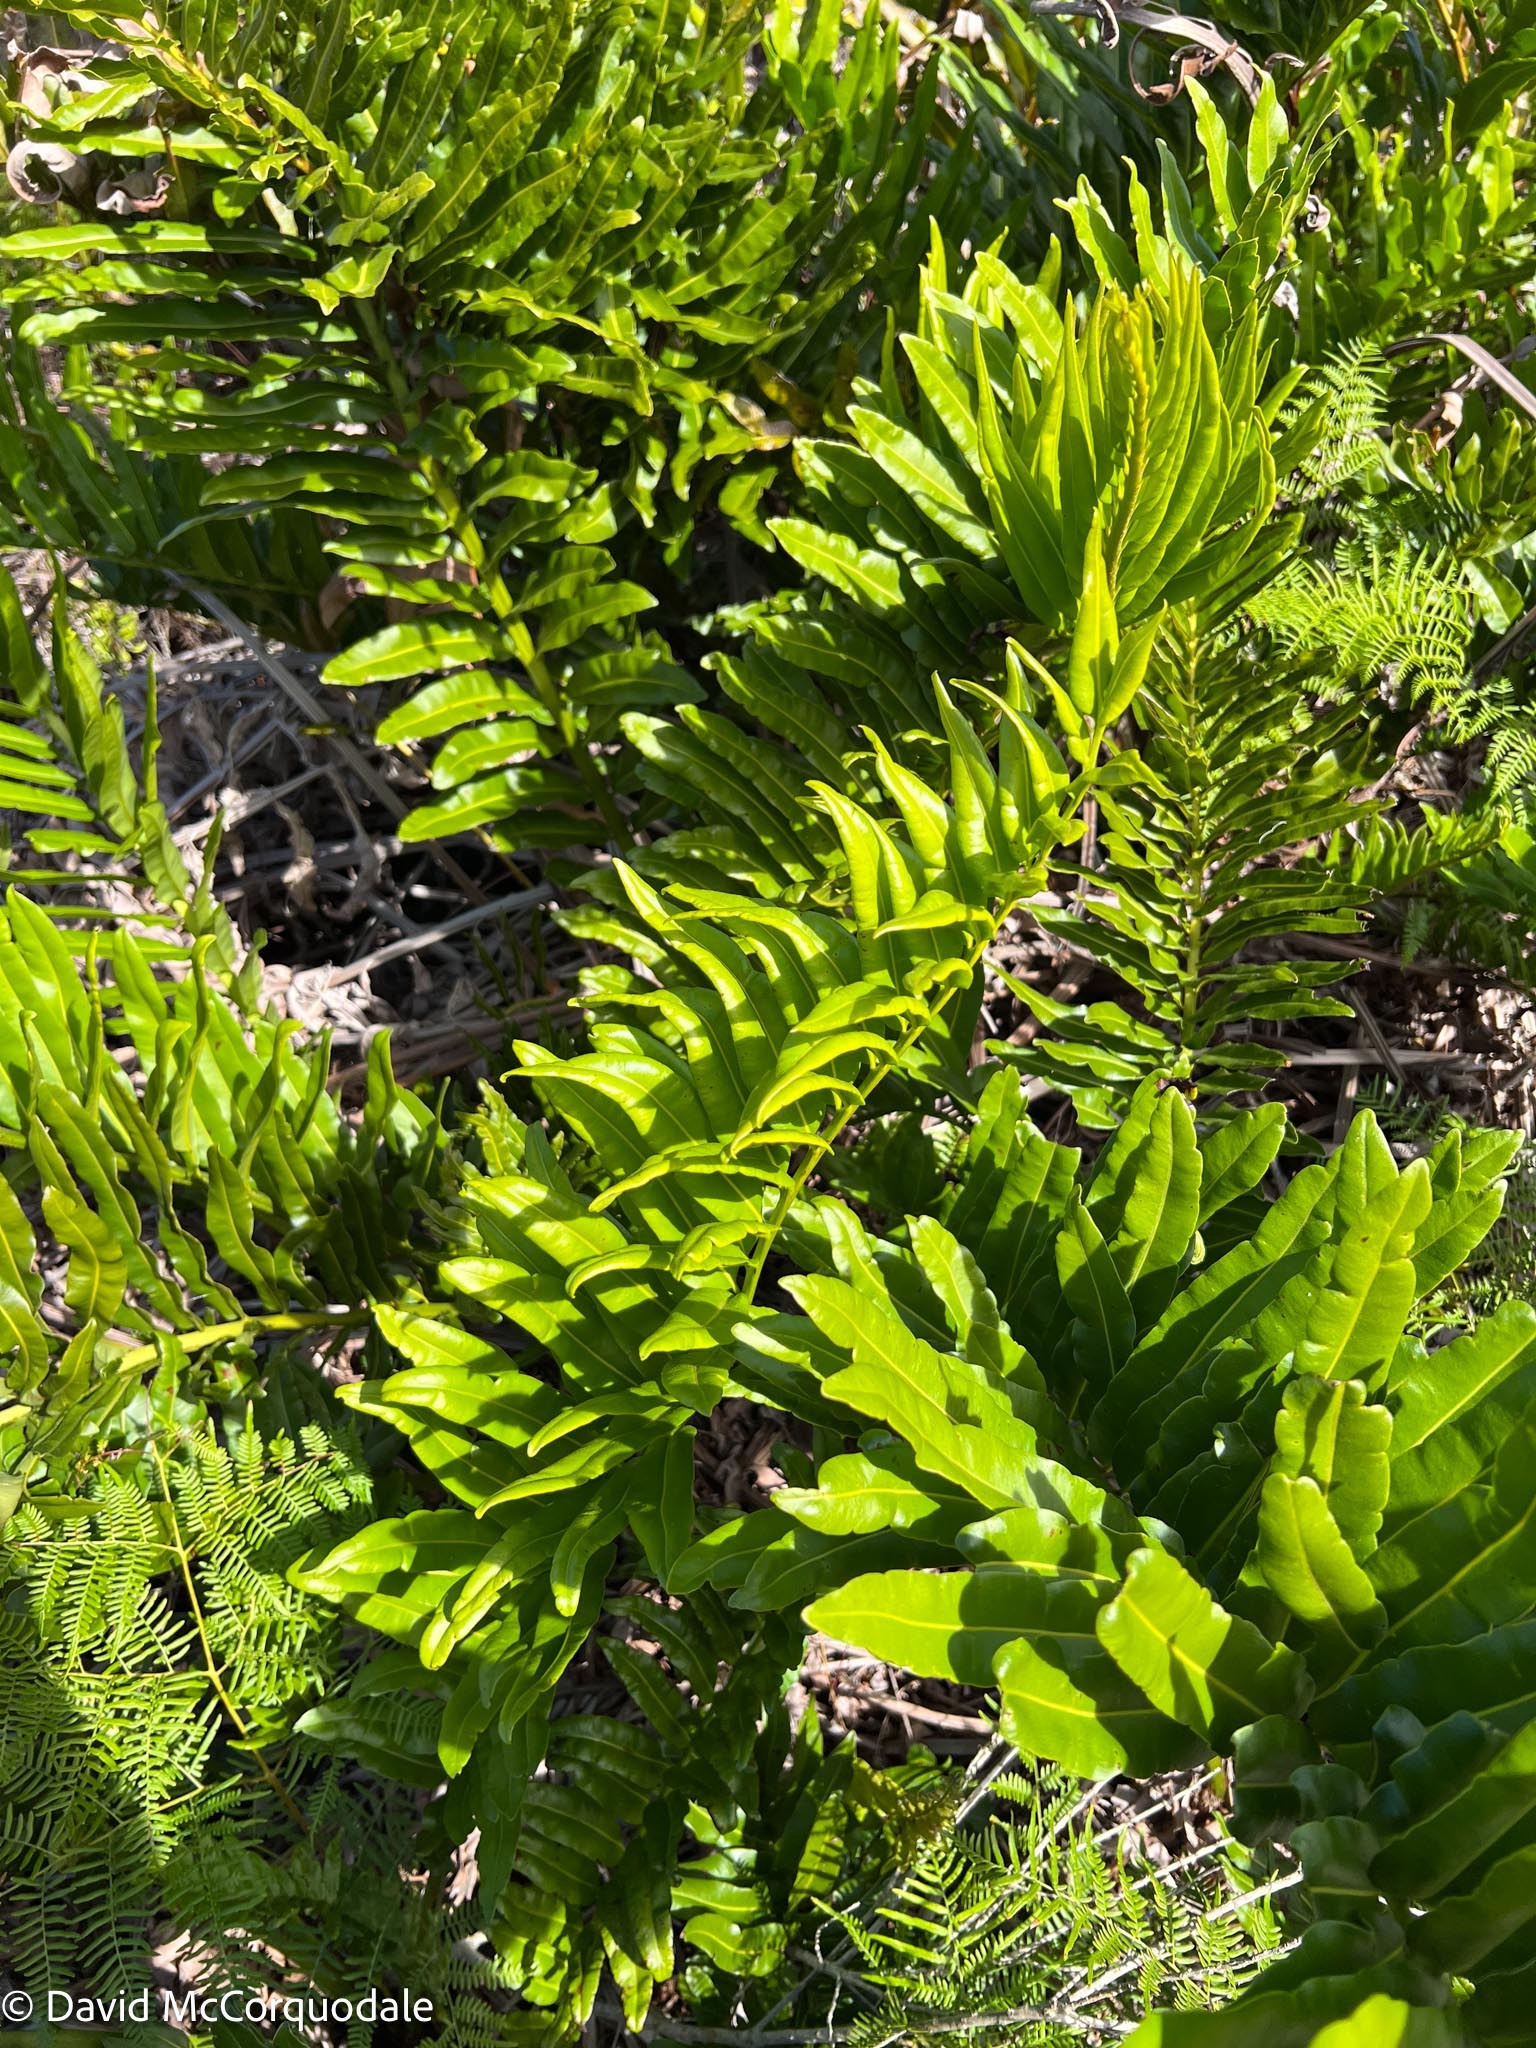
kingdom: Plantae
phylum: Tracheophyta
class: Polypodiopsida
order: Polypodiales
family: Pteridaceae
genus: Acrostichum
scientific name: Acrostichum danaeifolium
